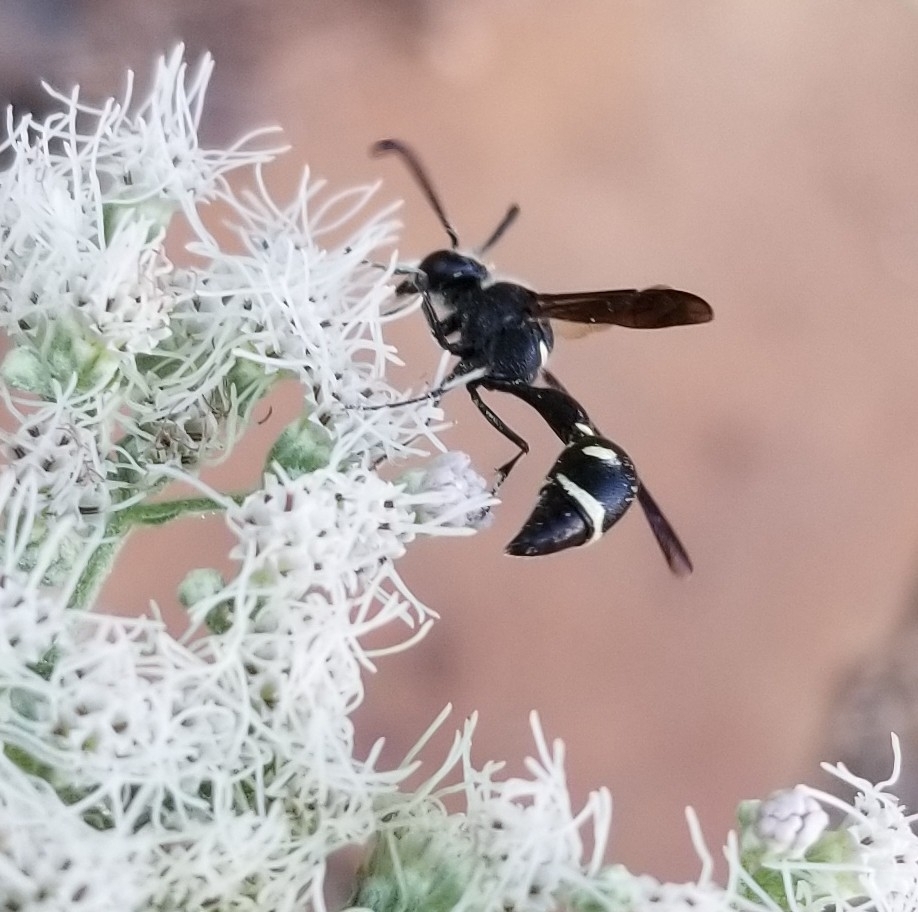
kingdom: Animalia
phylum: Arthropoda
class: Insecta
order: Hymenoptera
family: Vespidae
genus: Eumenes
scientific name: Eumenes fraternus
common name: Fraternal potter wasp
